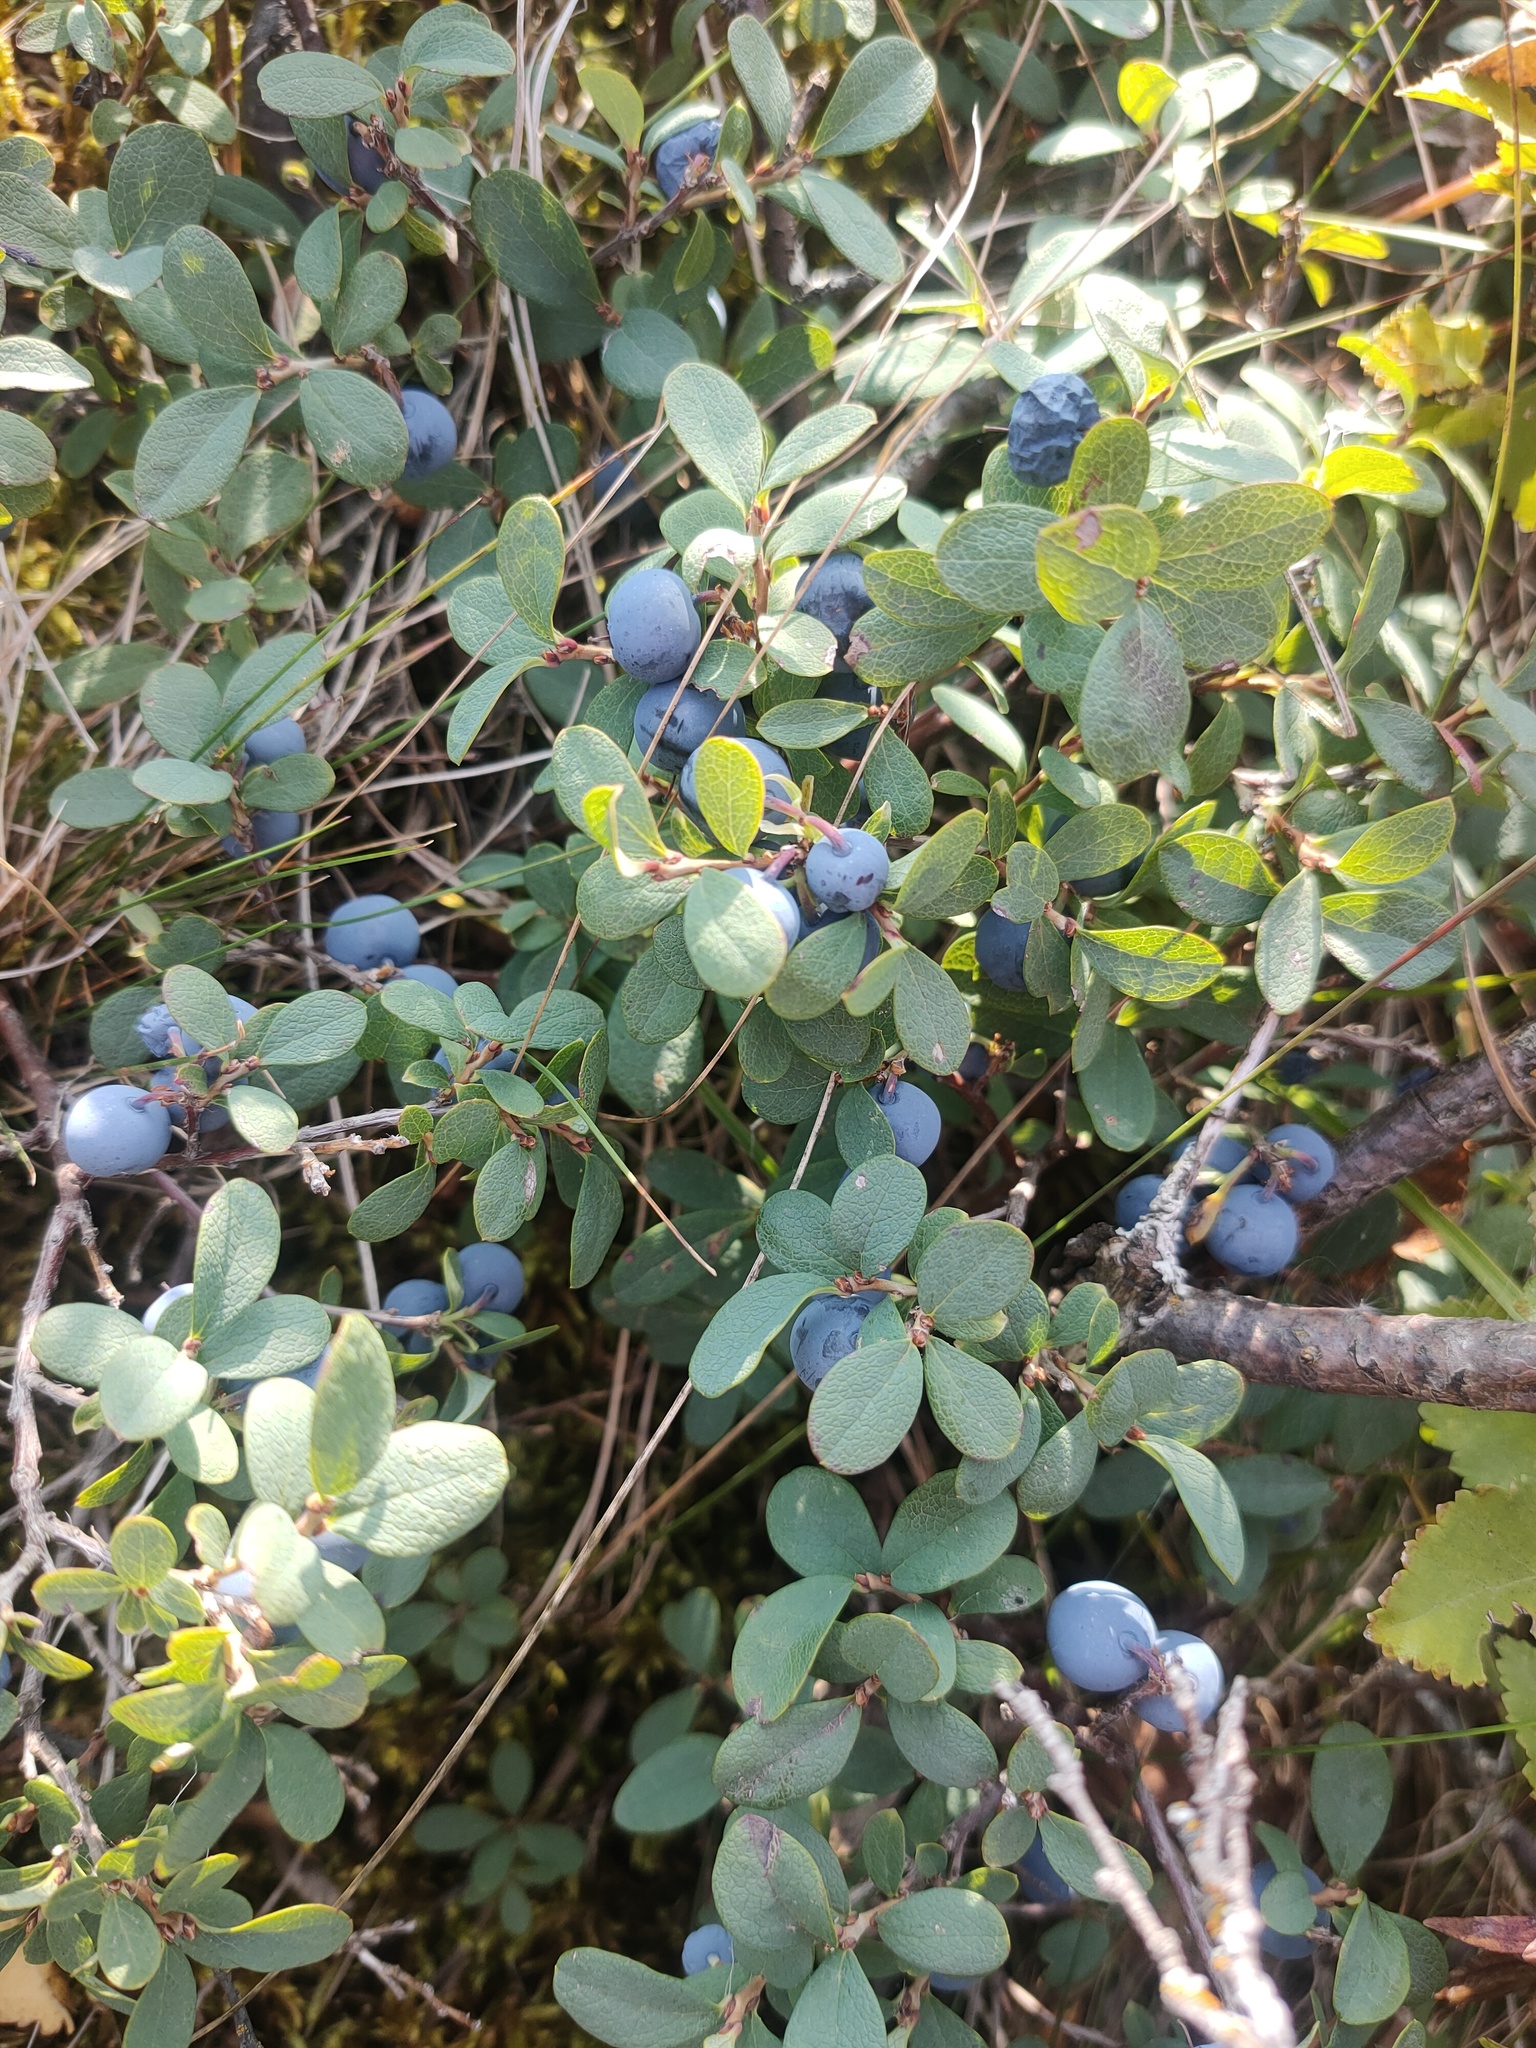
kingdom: Plantae
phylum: Tracheophyta
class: Magnoliopsida
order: Ericales
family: Ericaceae
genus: Vaccinium
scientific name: Vaccinium uliginosum
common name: Bog bilberry
